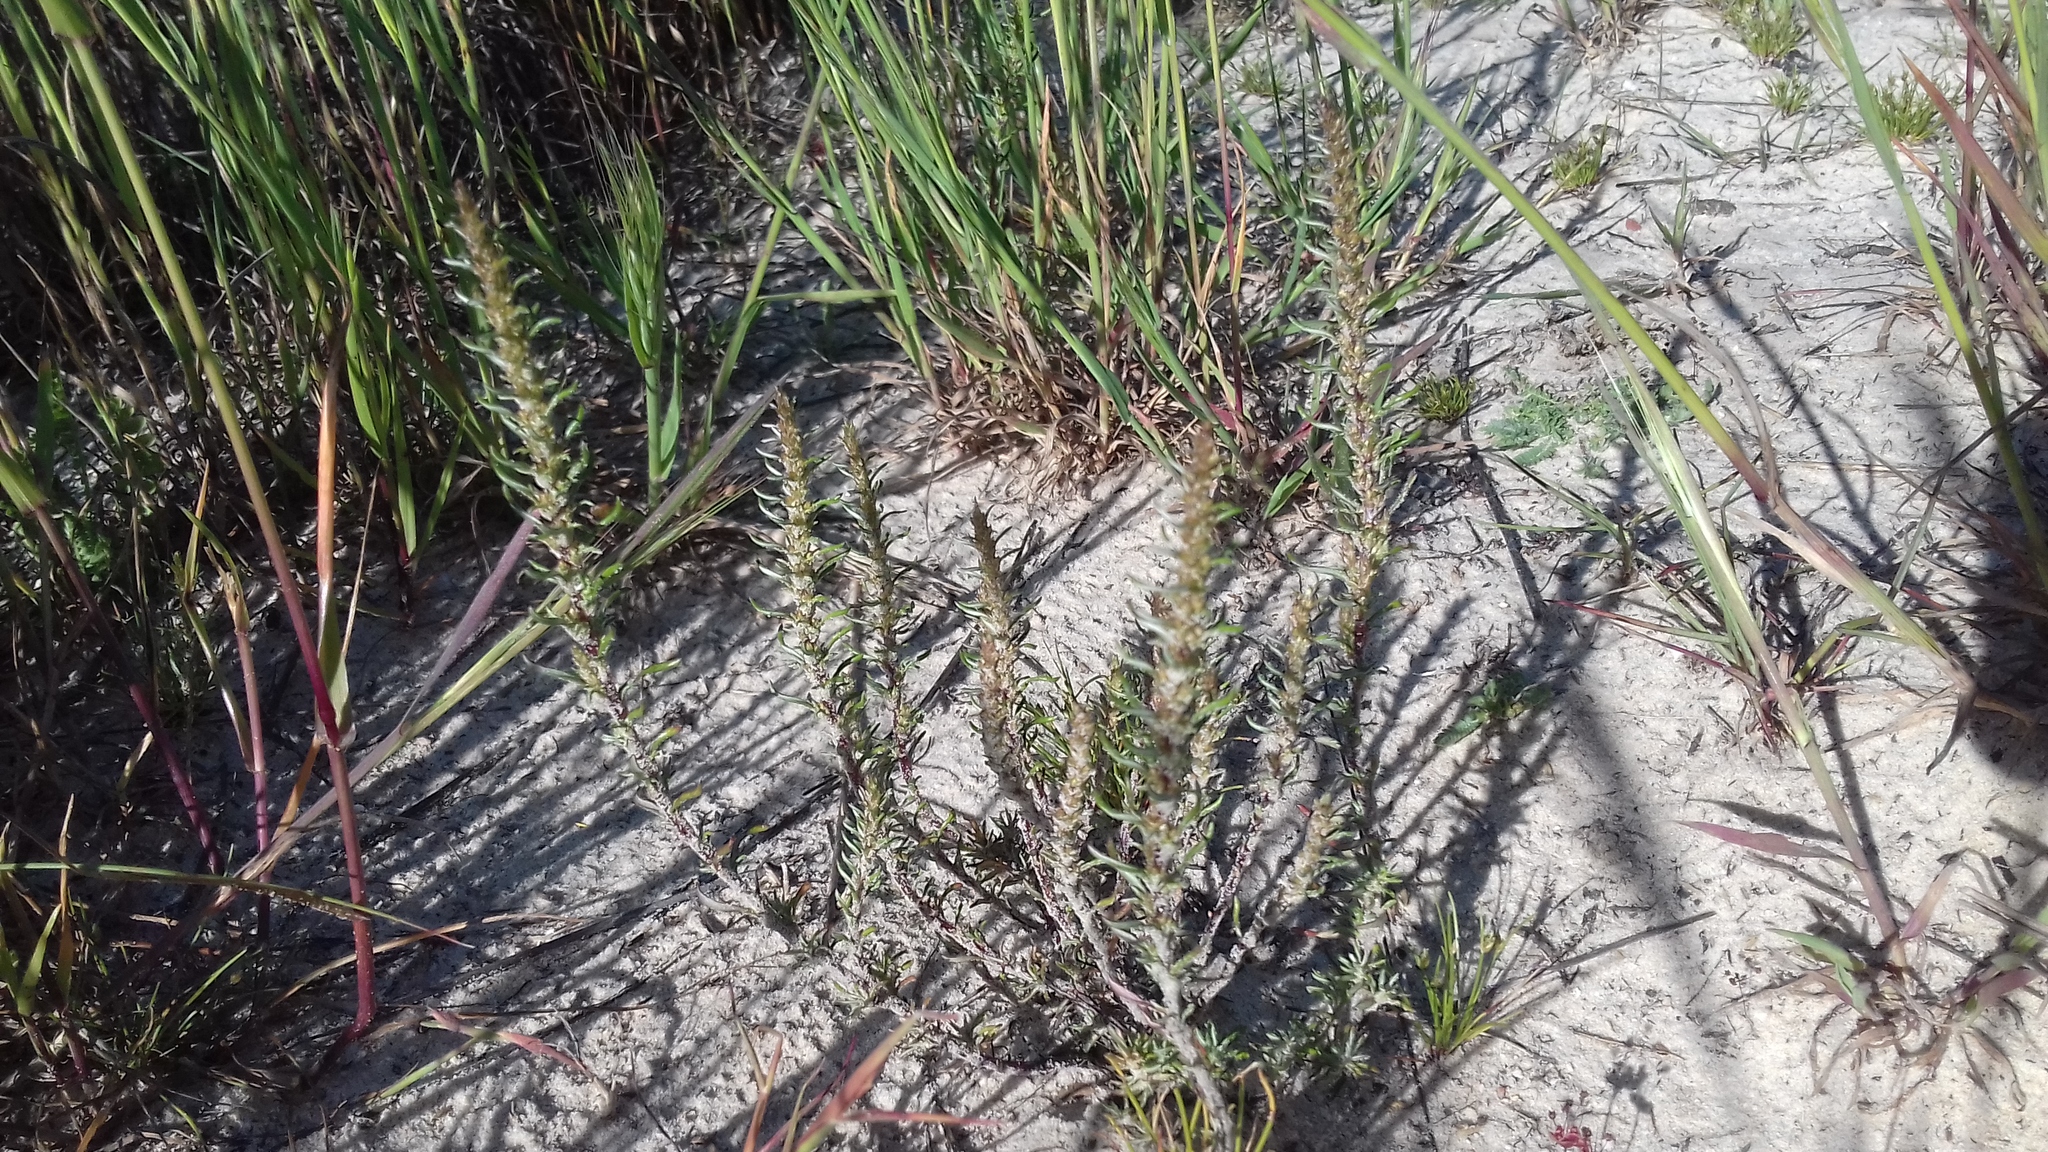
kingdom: Plantae
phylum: Tracheophyta
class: Magnoliopsida
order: Asterales
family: Asteraceae
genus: Myrovernix
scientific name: Myrovernix glandulosus
